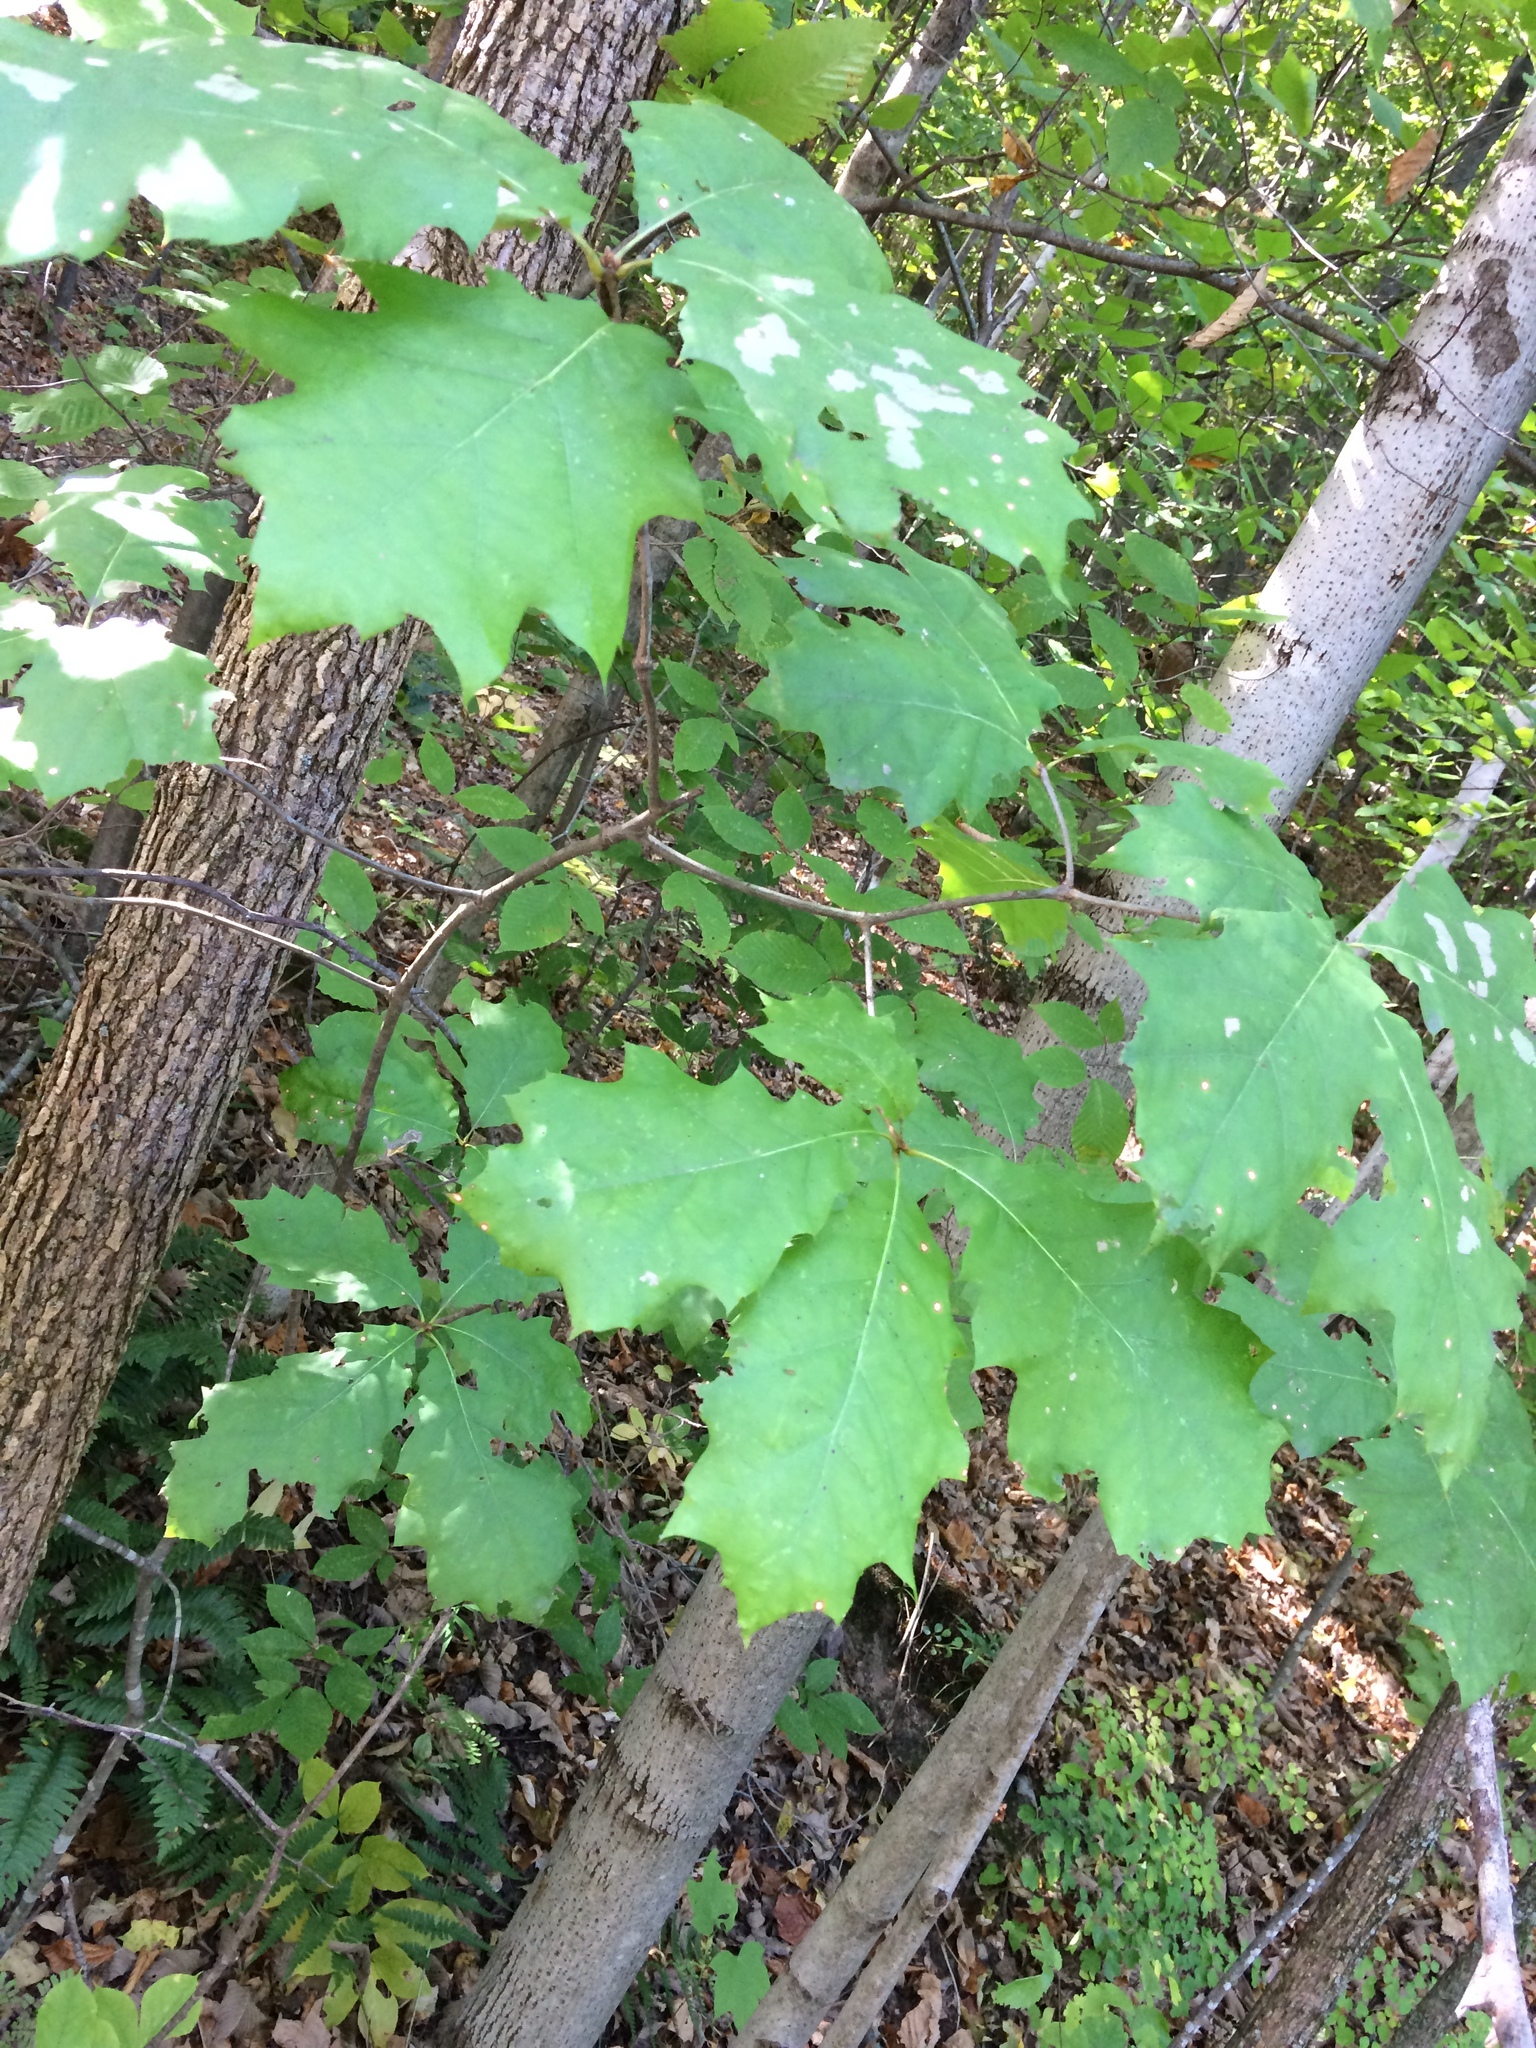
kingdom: Plantae
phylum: Tracheophyta
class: Magnoliopsida
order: Fagales
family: Fagaceae
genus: Quercus
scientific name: Quercus rubra
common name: Red oak
